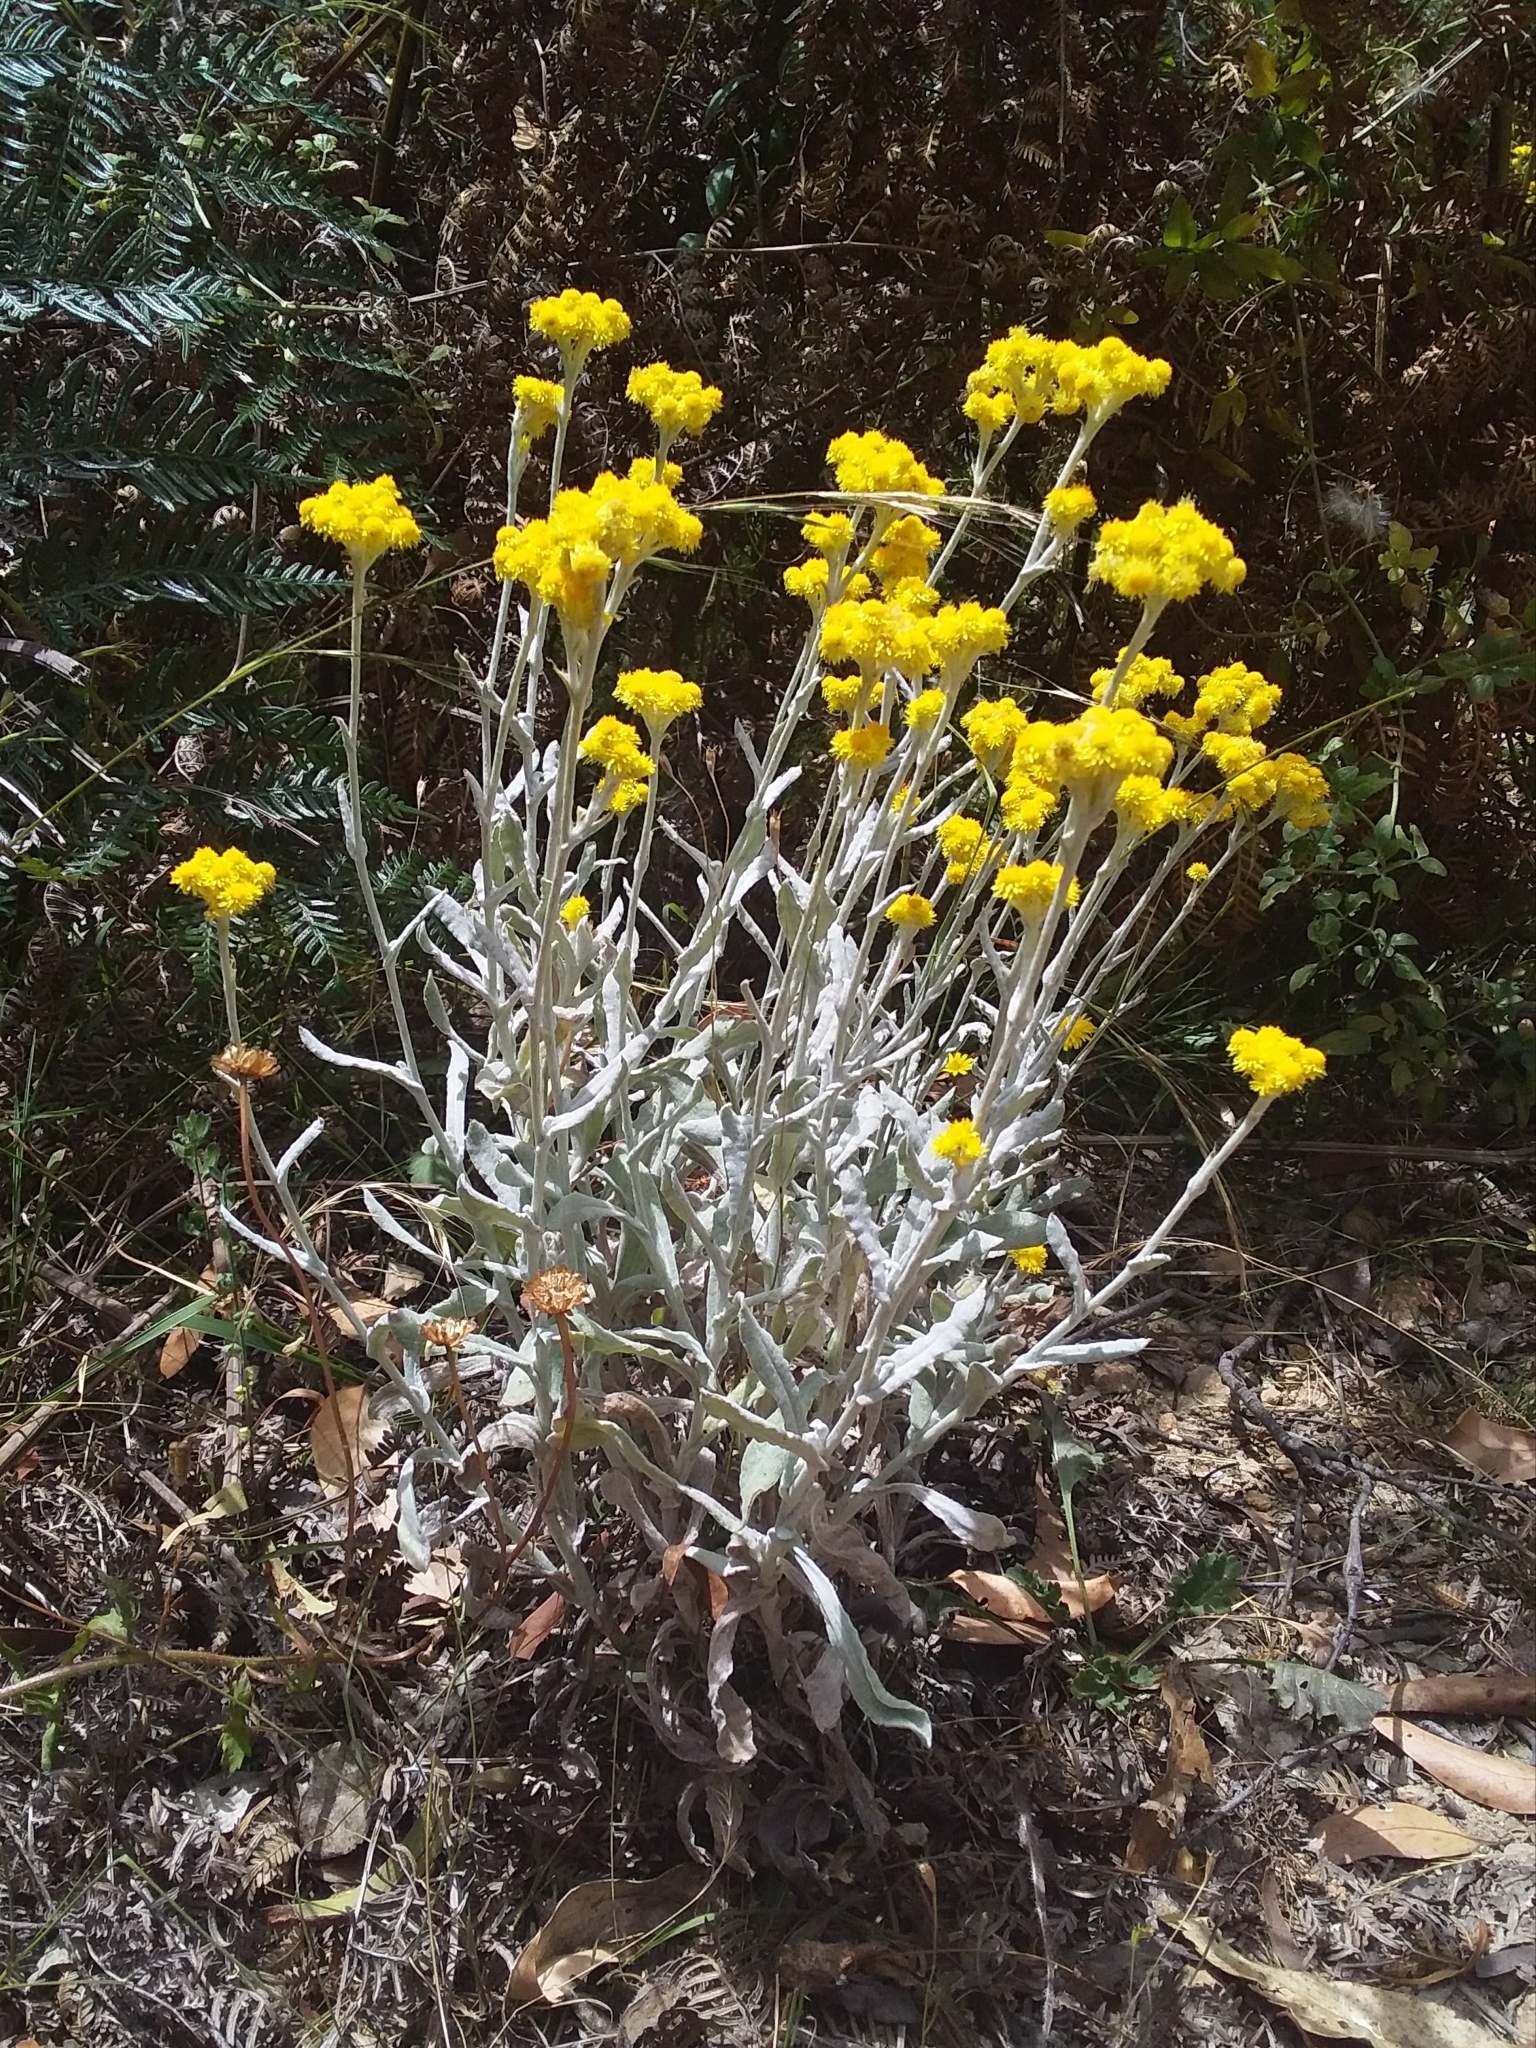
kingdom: Plantae
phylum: Tracheophyta
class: Magnoliopsida
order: Asterales
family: Asteraceae
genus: Chrysocephalum
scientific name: Chrysocephalum apiculatum
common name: Common everlasting
